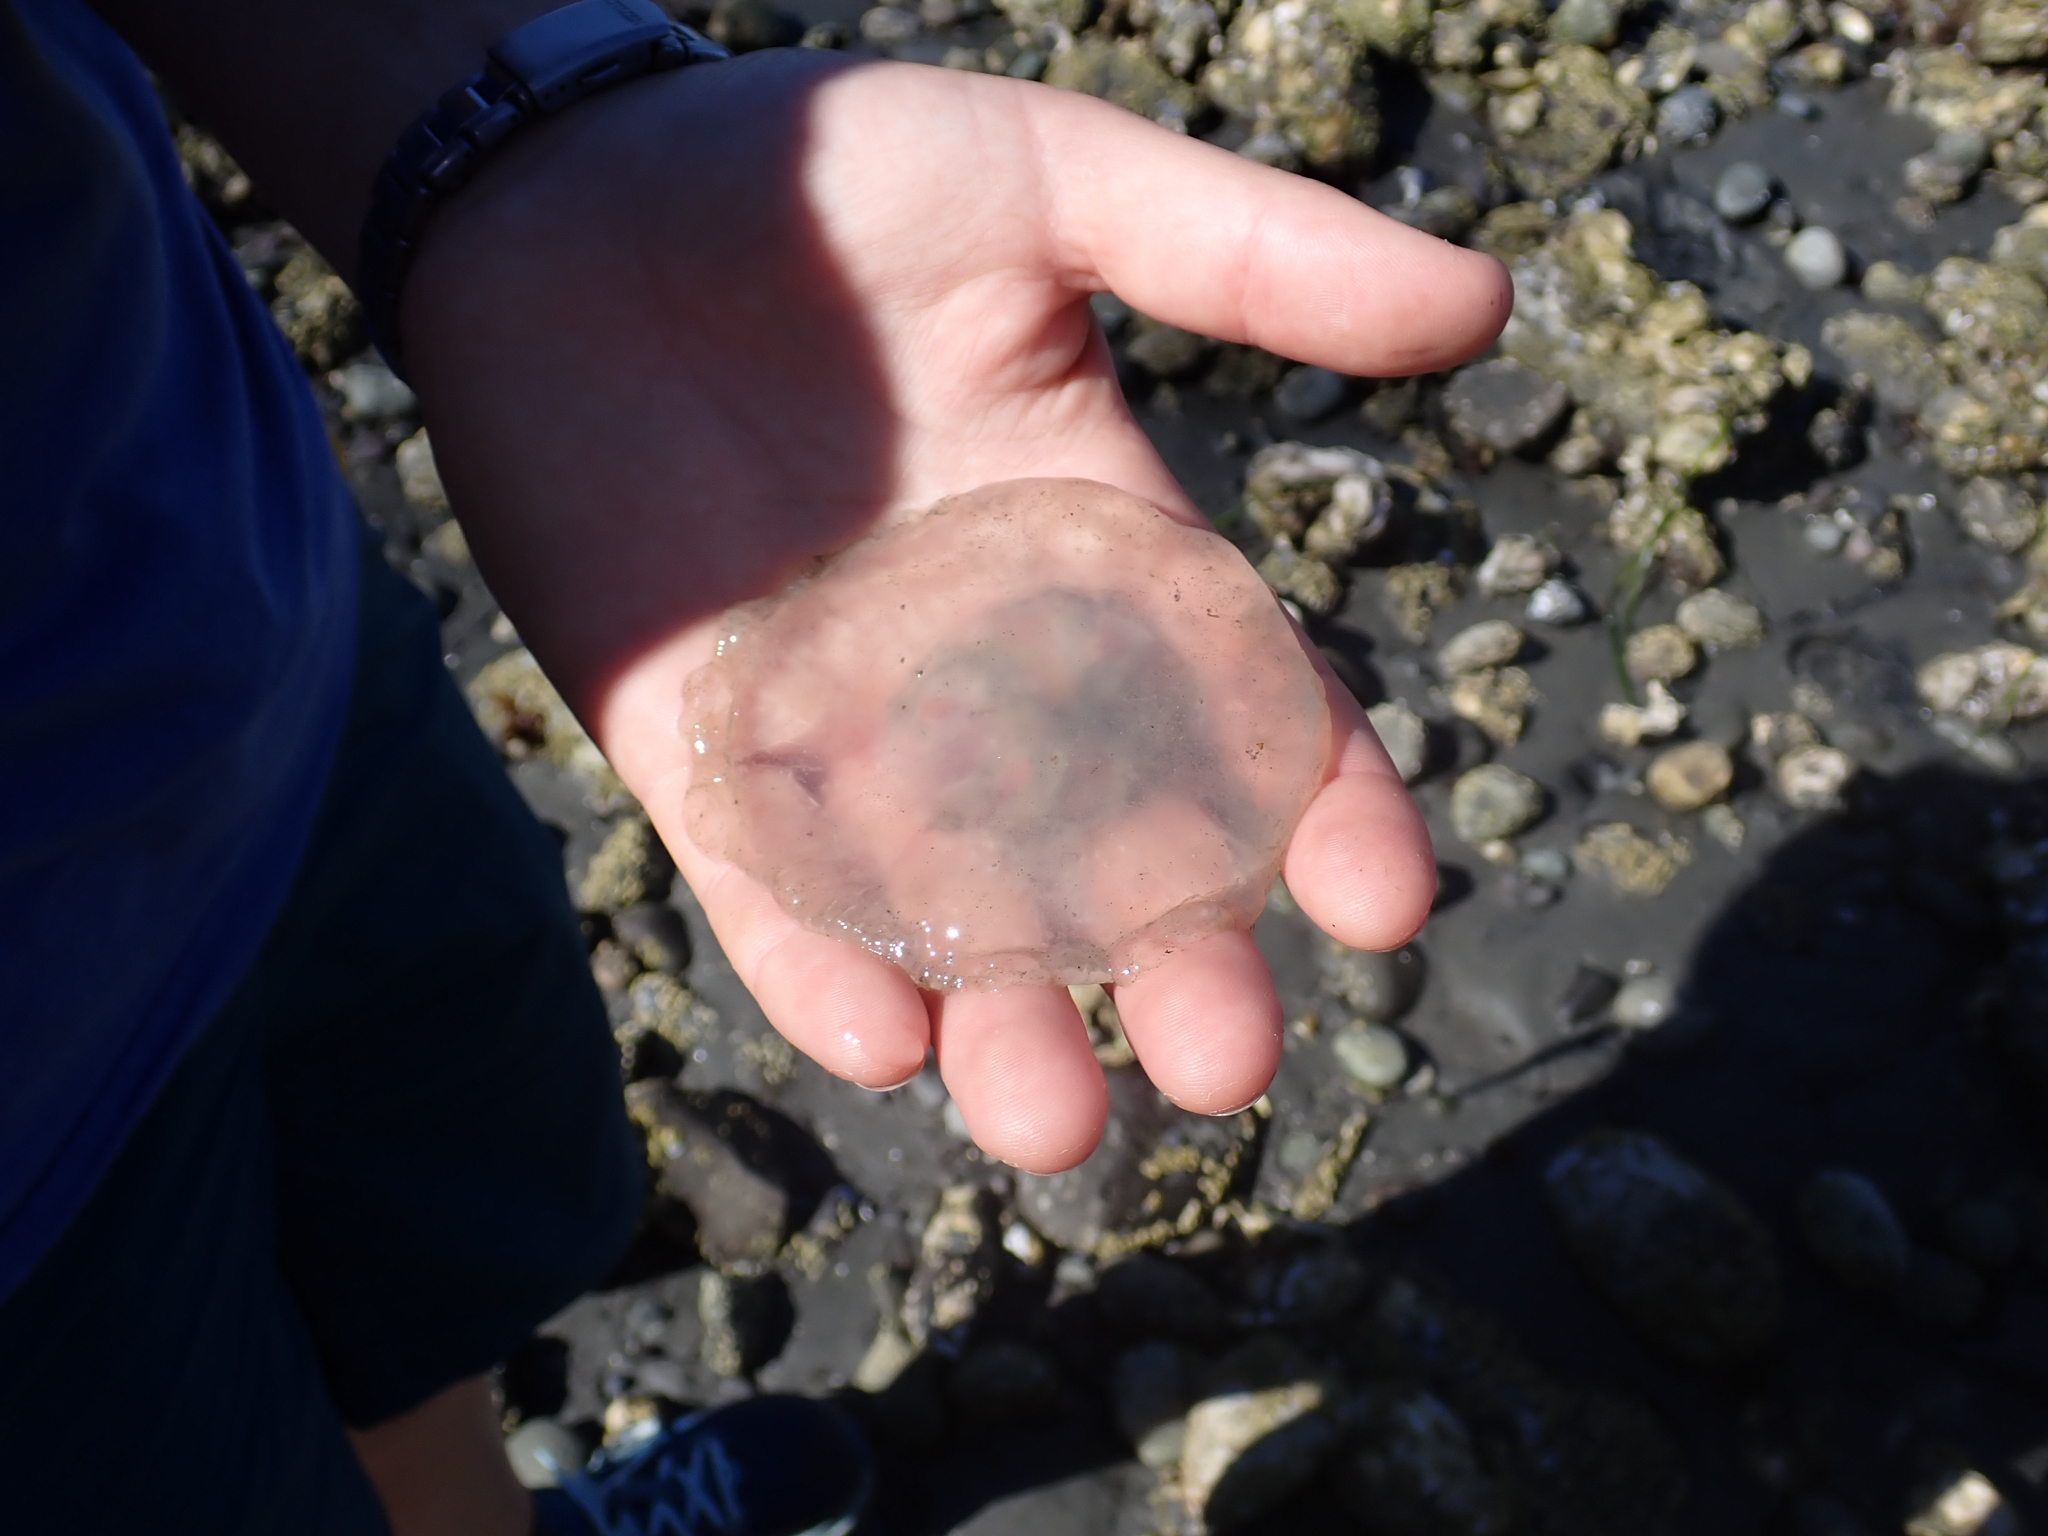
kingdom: Animalia
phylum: Cnidaria
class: Scyphozoa
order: Semaeostomeae
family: Ulmaridae
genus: Aurelia
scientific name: Aurelia labiata
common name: Pacific moon jelly
